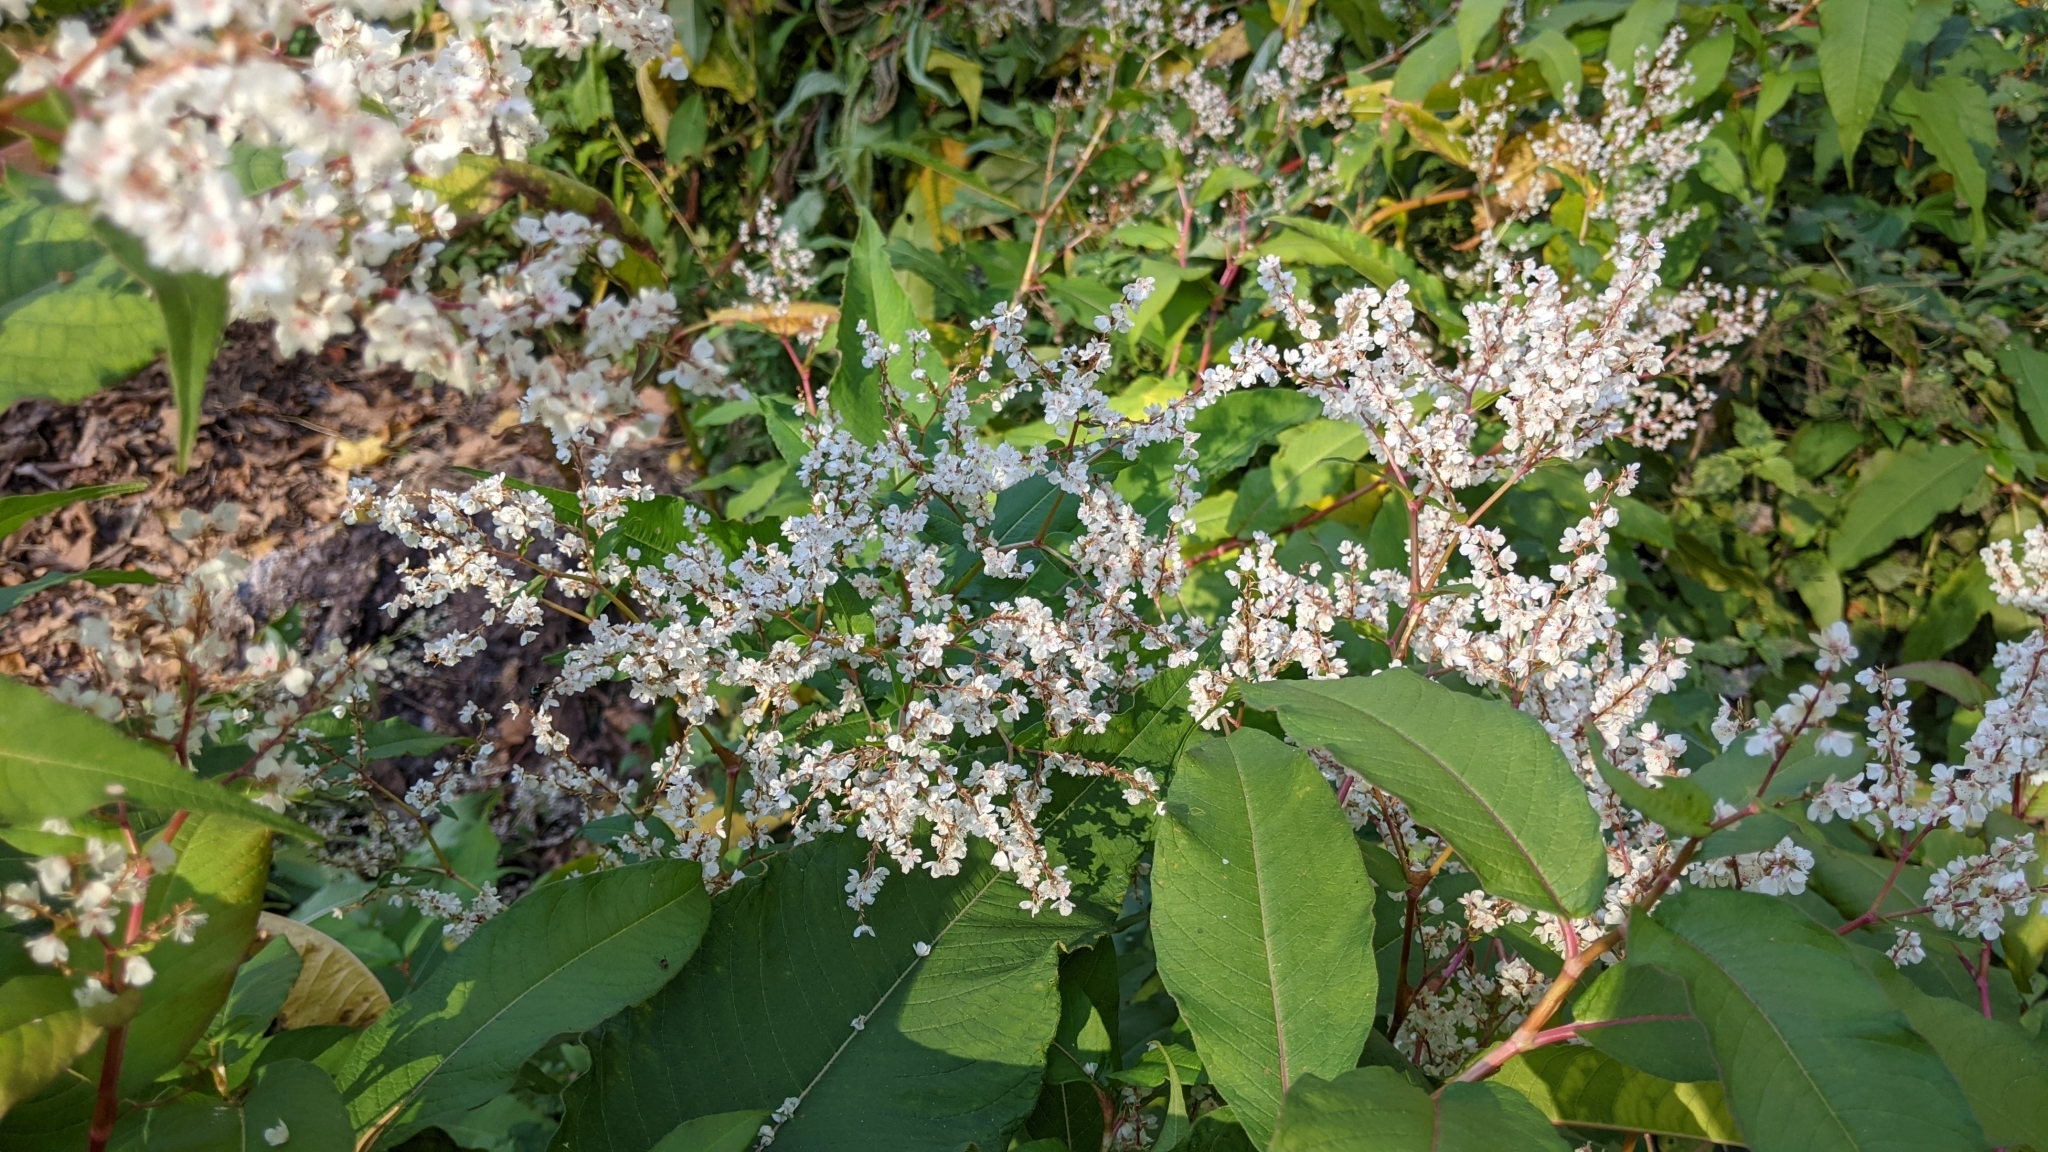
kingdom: Plantae
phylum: Tracheophyta
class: Magnoliopsida
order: Caryophyllales
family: Polygonaceae
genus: Koenigia
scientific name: Koenigia polystachya
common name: Himalayan knotweed
